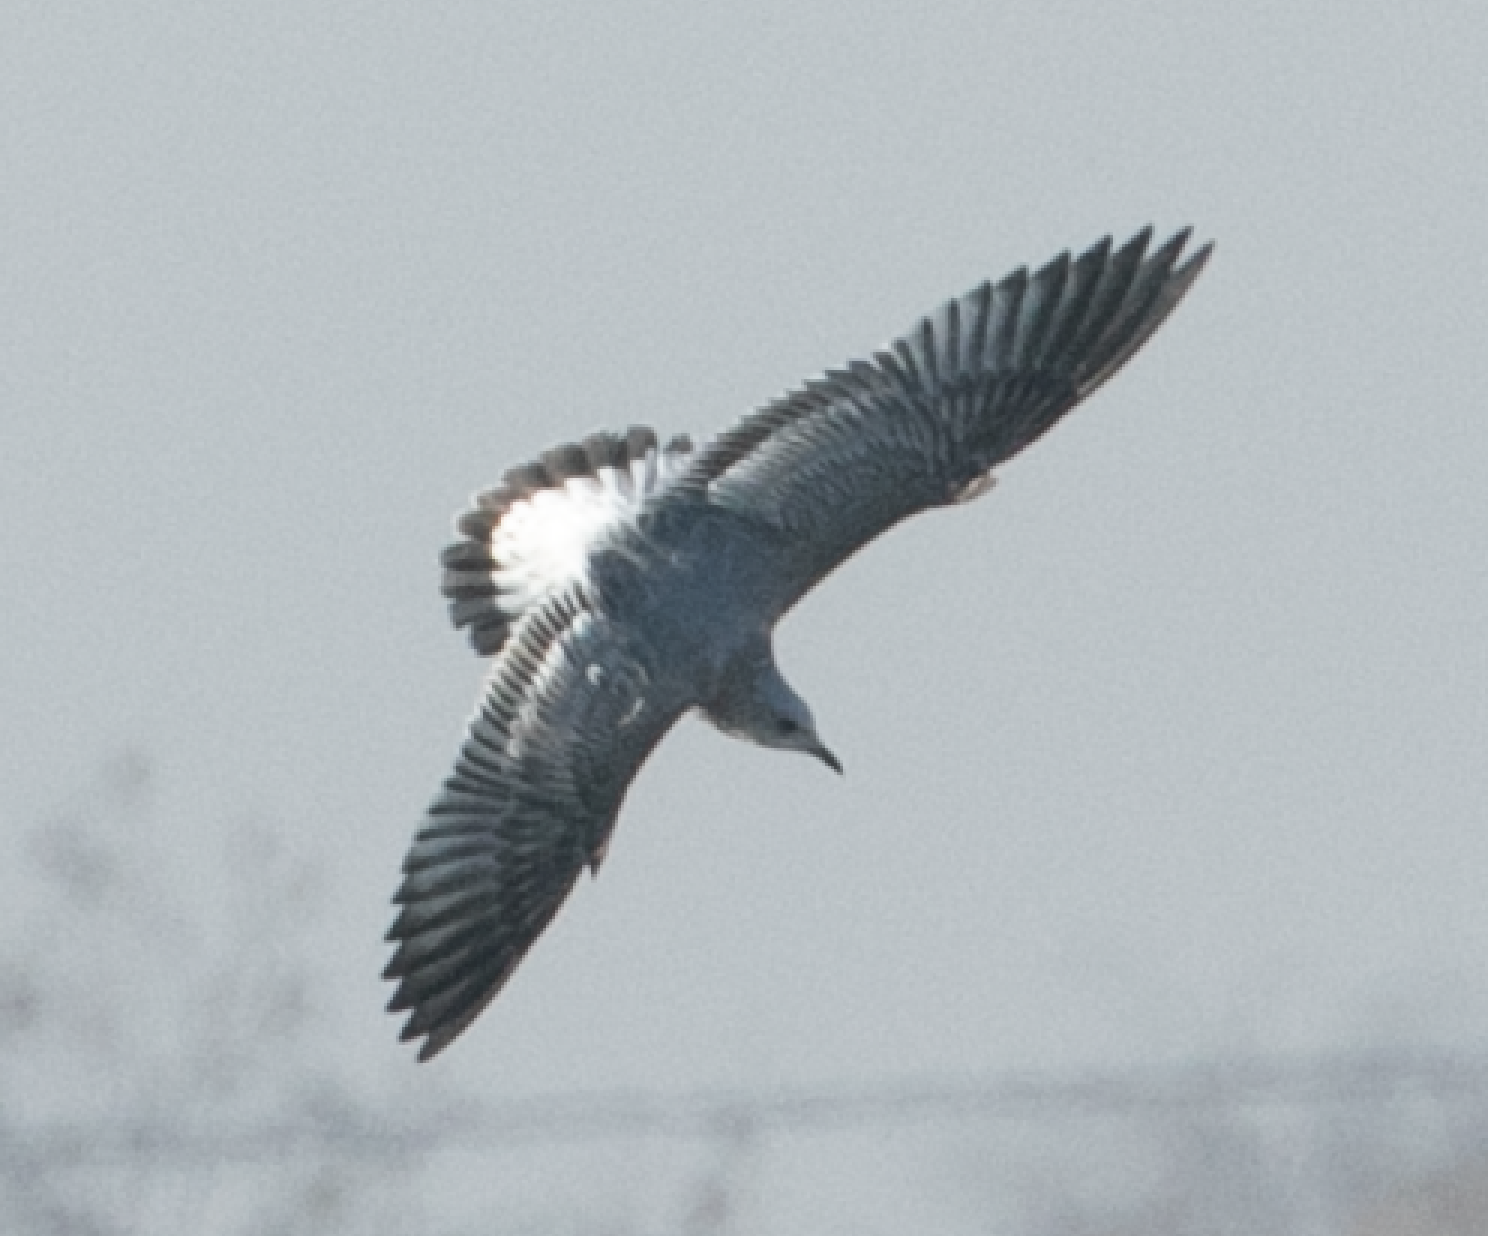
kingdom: Animalia
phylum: Chordata
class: Aves
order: Charadriiformes
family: Laridae
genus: Larus
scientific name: Larus canus
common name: Mew gull
